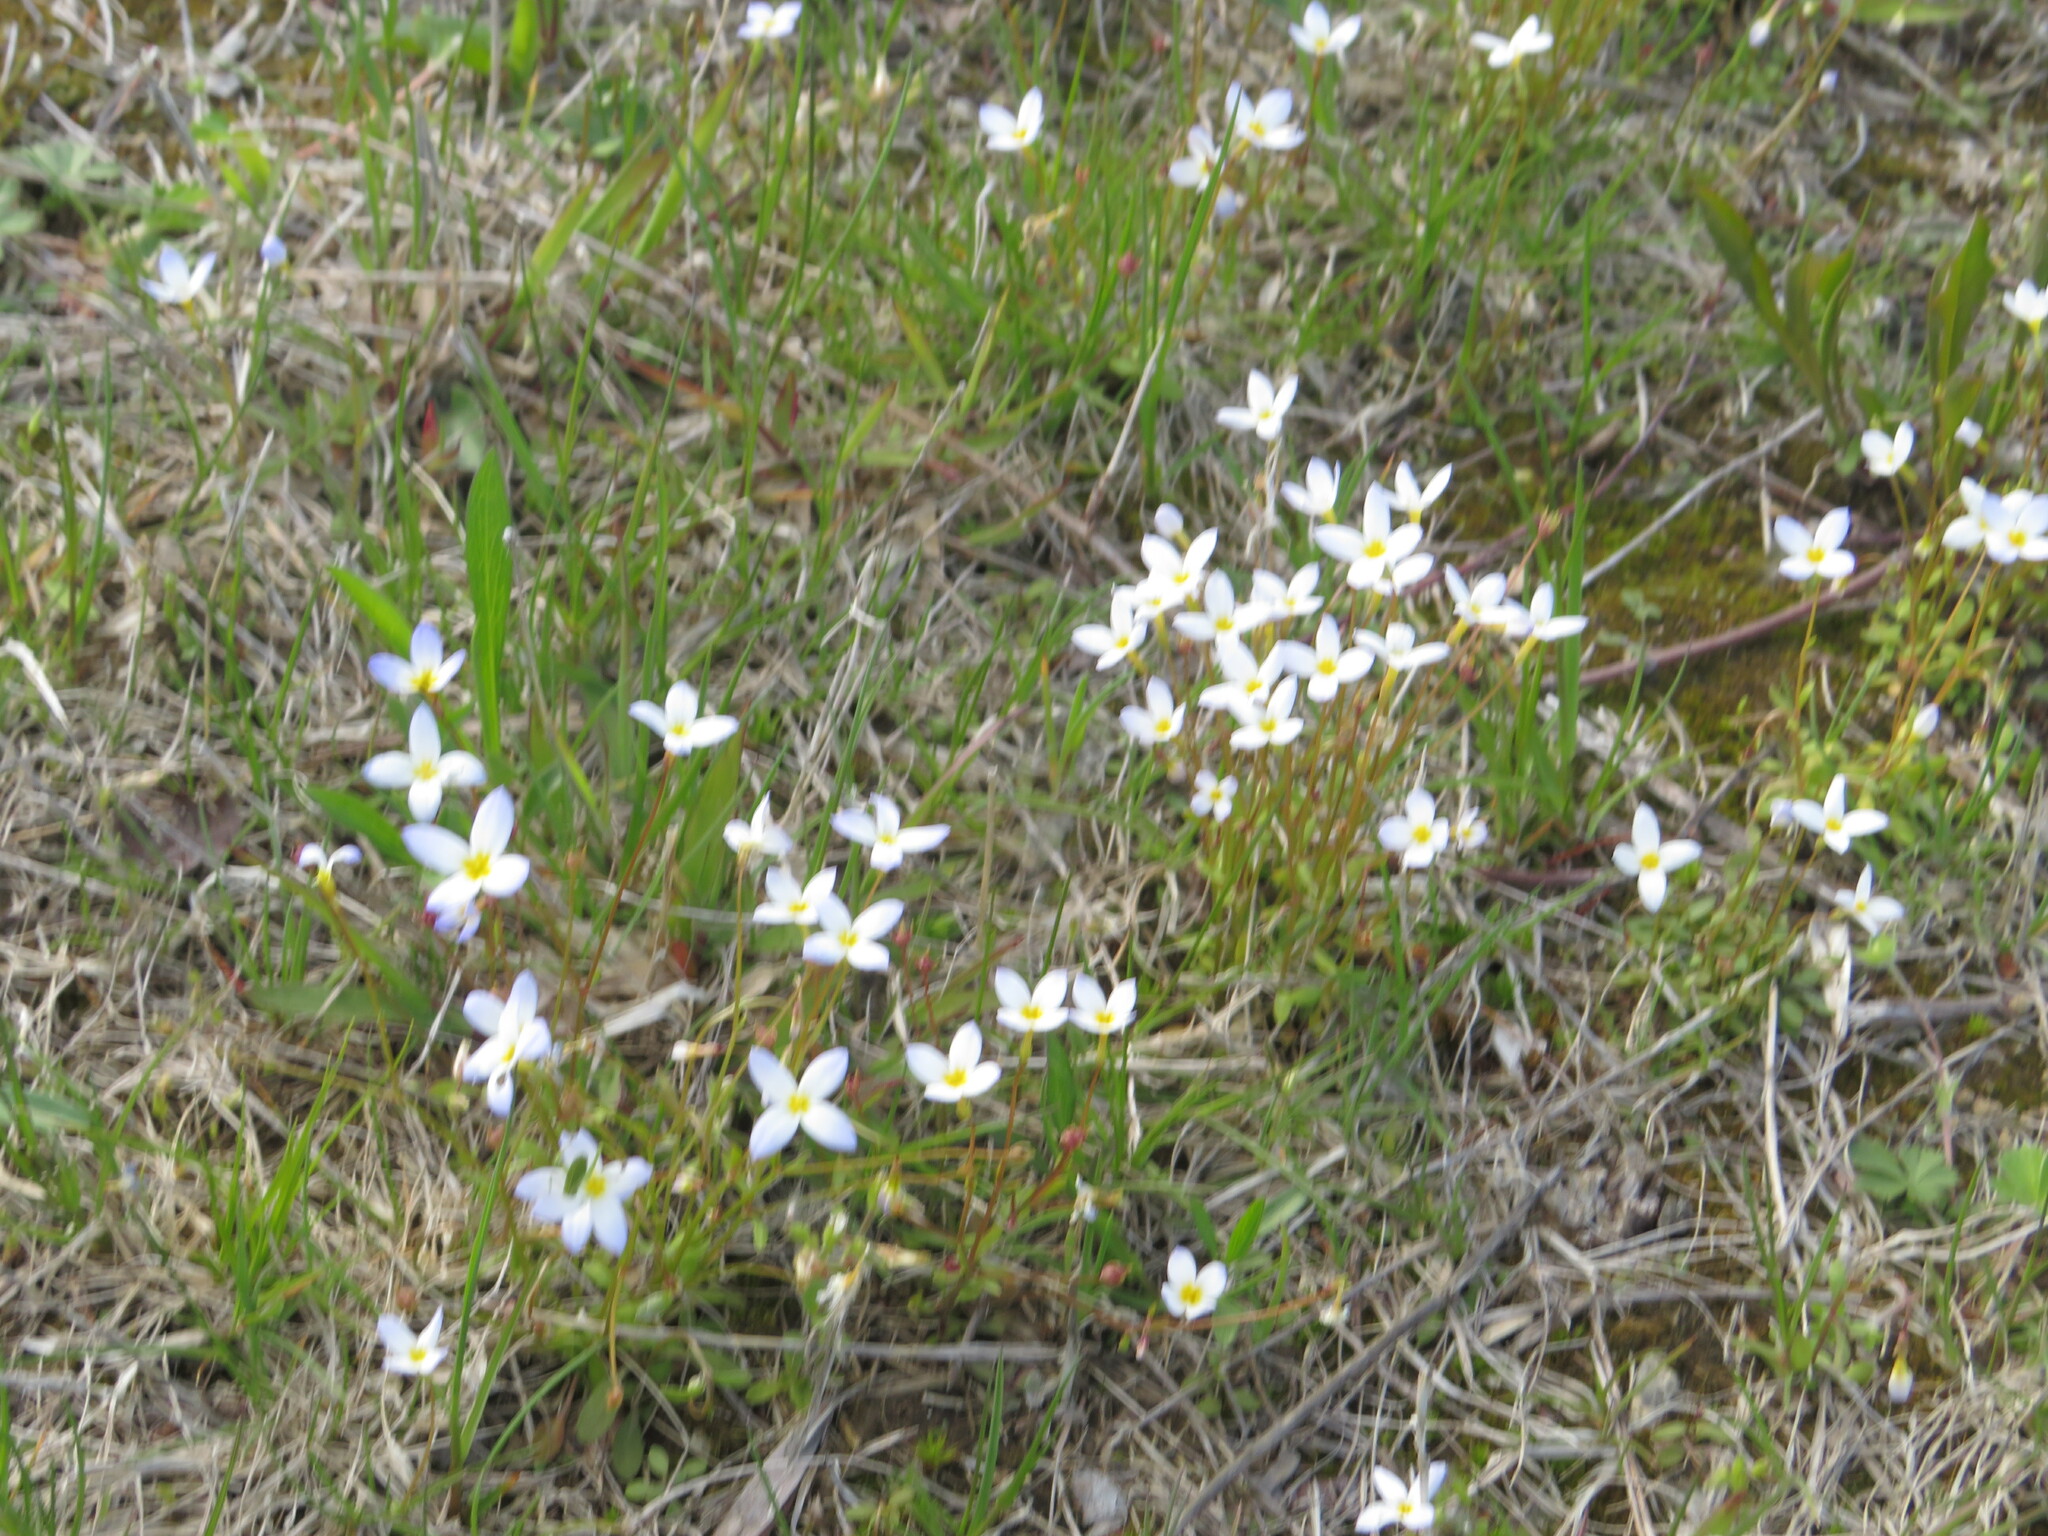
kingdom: Plantae
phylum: Tracheophyta
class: Magnoliopsida
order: Gentianales
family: Rubiaceae
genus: Houstonia
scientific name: Houstonia caerulea
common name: Bluets
